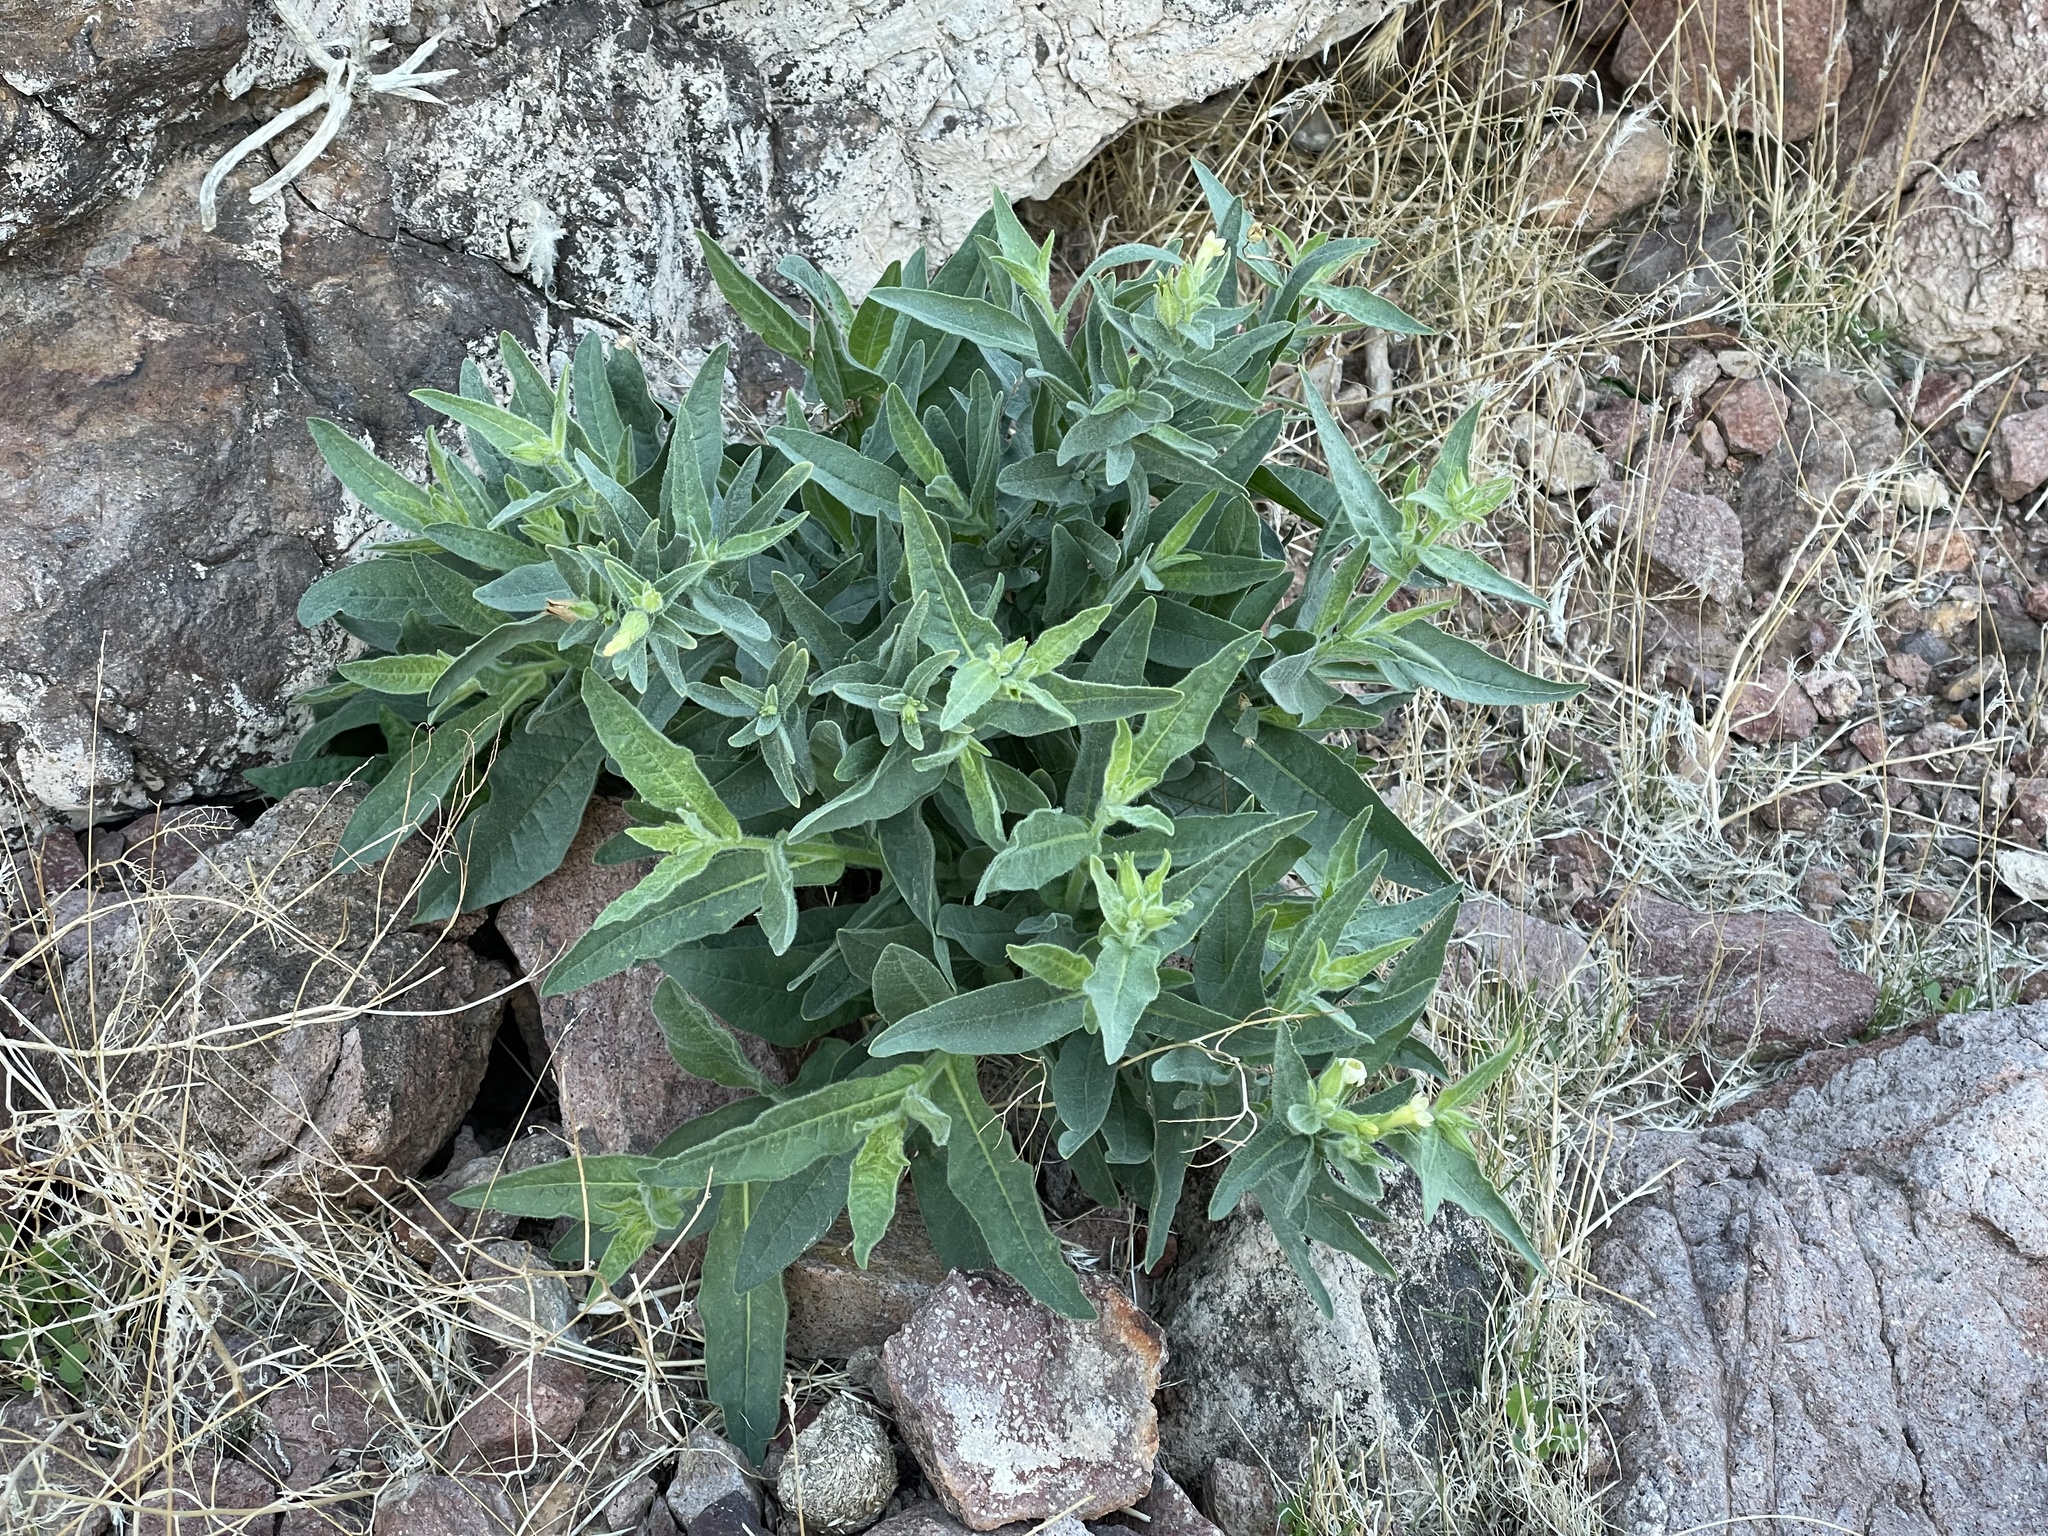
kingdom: Plantae
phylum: Tracheophyta
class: Magnoliopsida
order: Solanales
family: Solanaceae
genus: Nicotiana
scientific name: Nicotiana obtusifolia
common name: Desert tobacco
